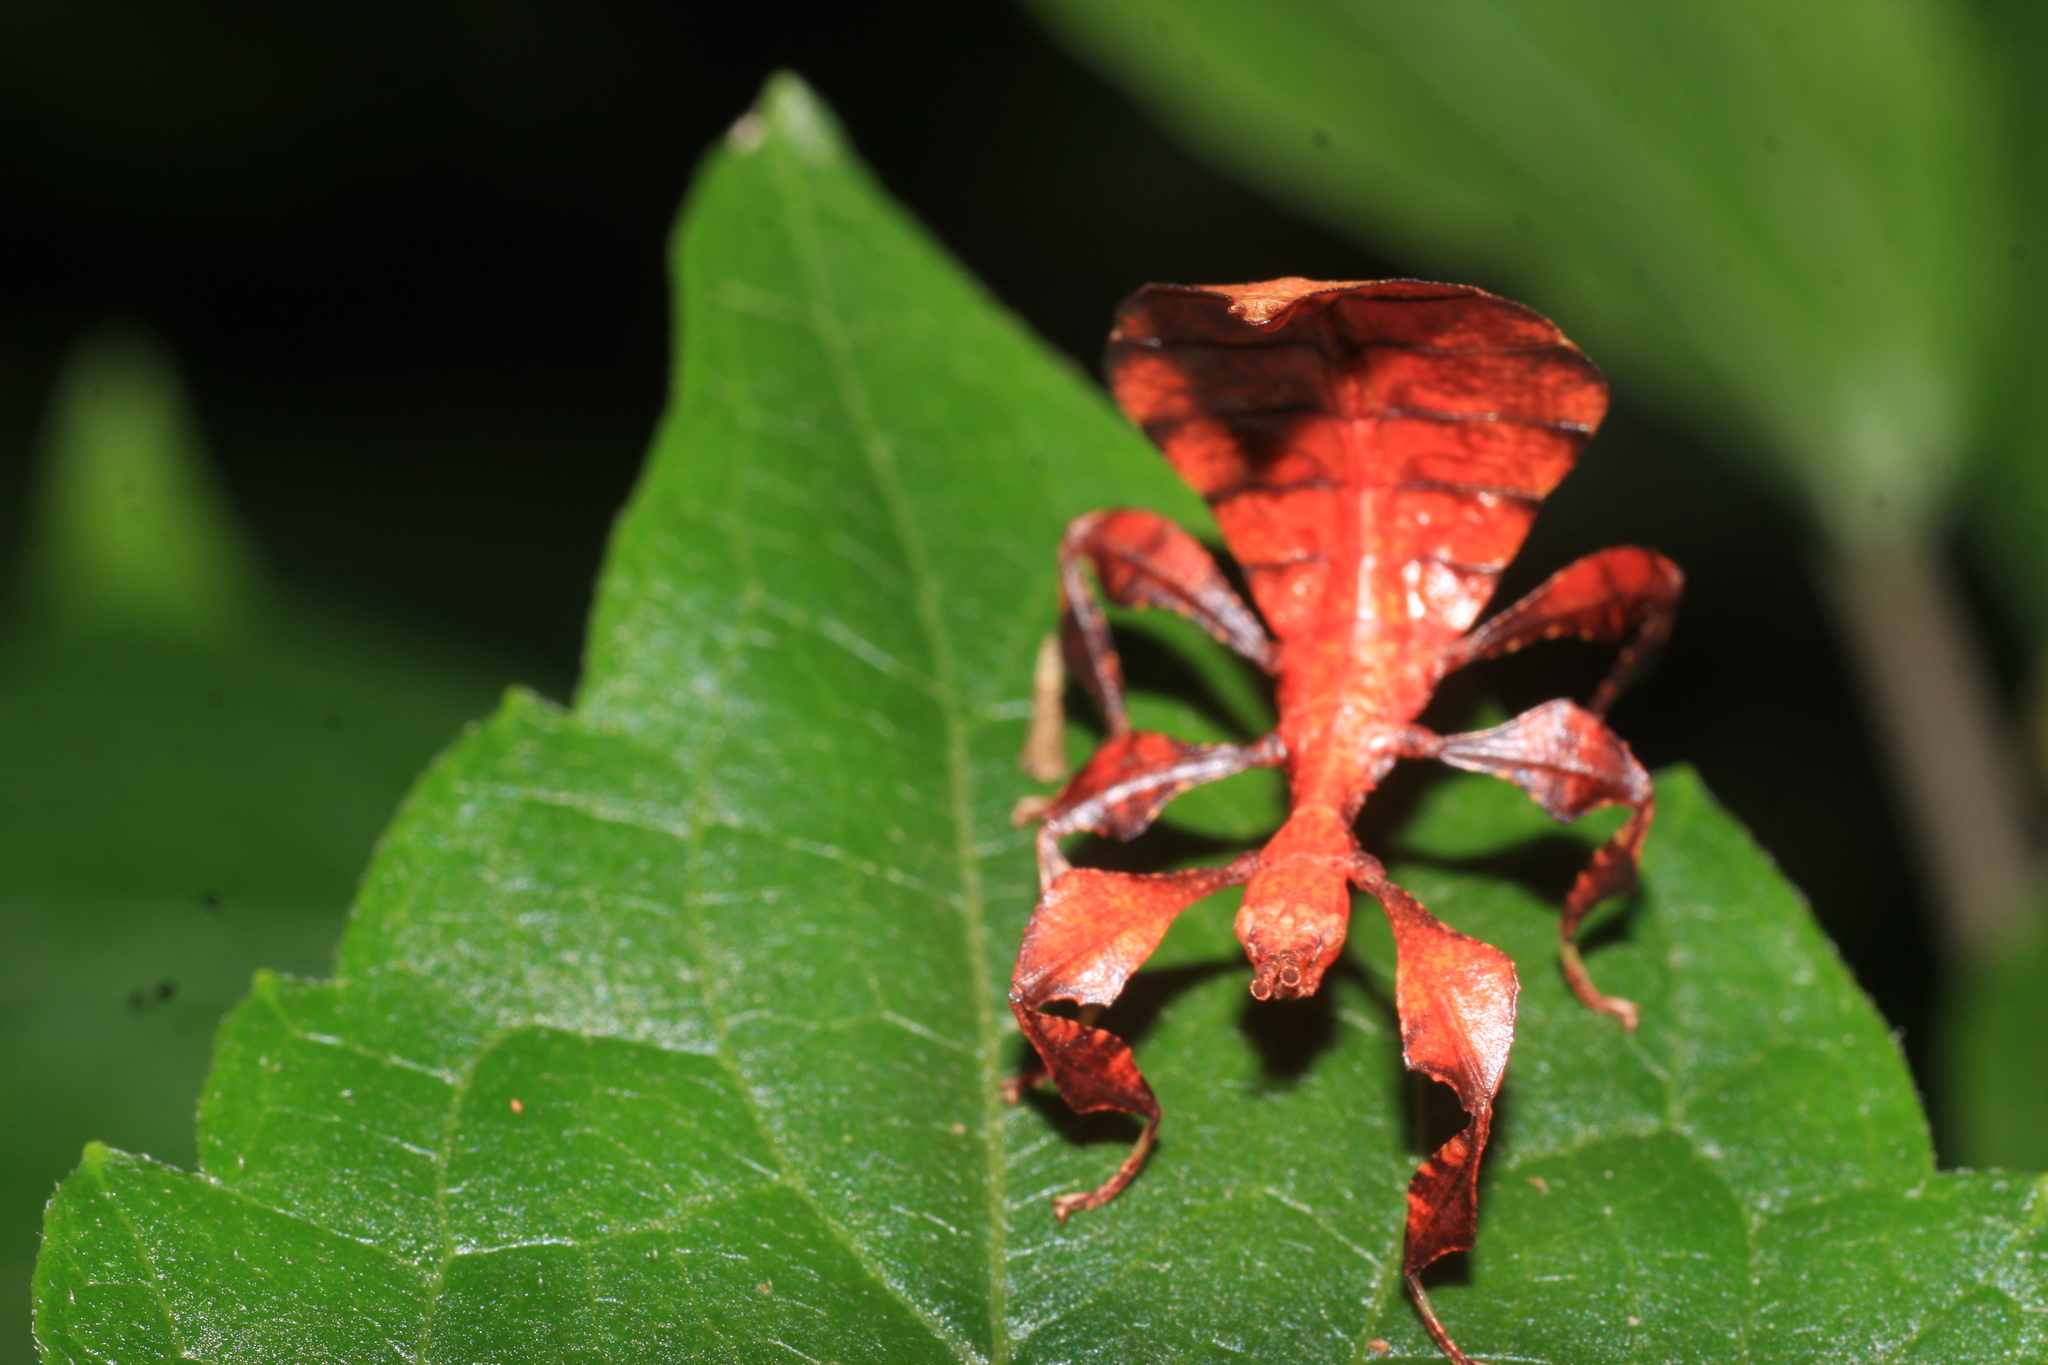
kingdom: Animalia
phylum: Arthropoda
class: Insecta
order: Phasmida
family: Phylliidae
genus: Pulchriphyllium
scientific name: Pulchriphyllium anangu
